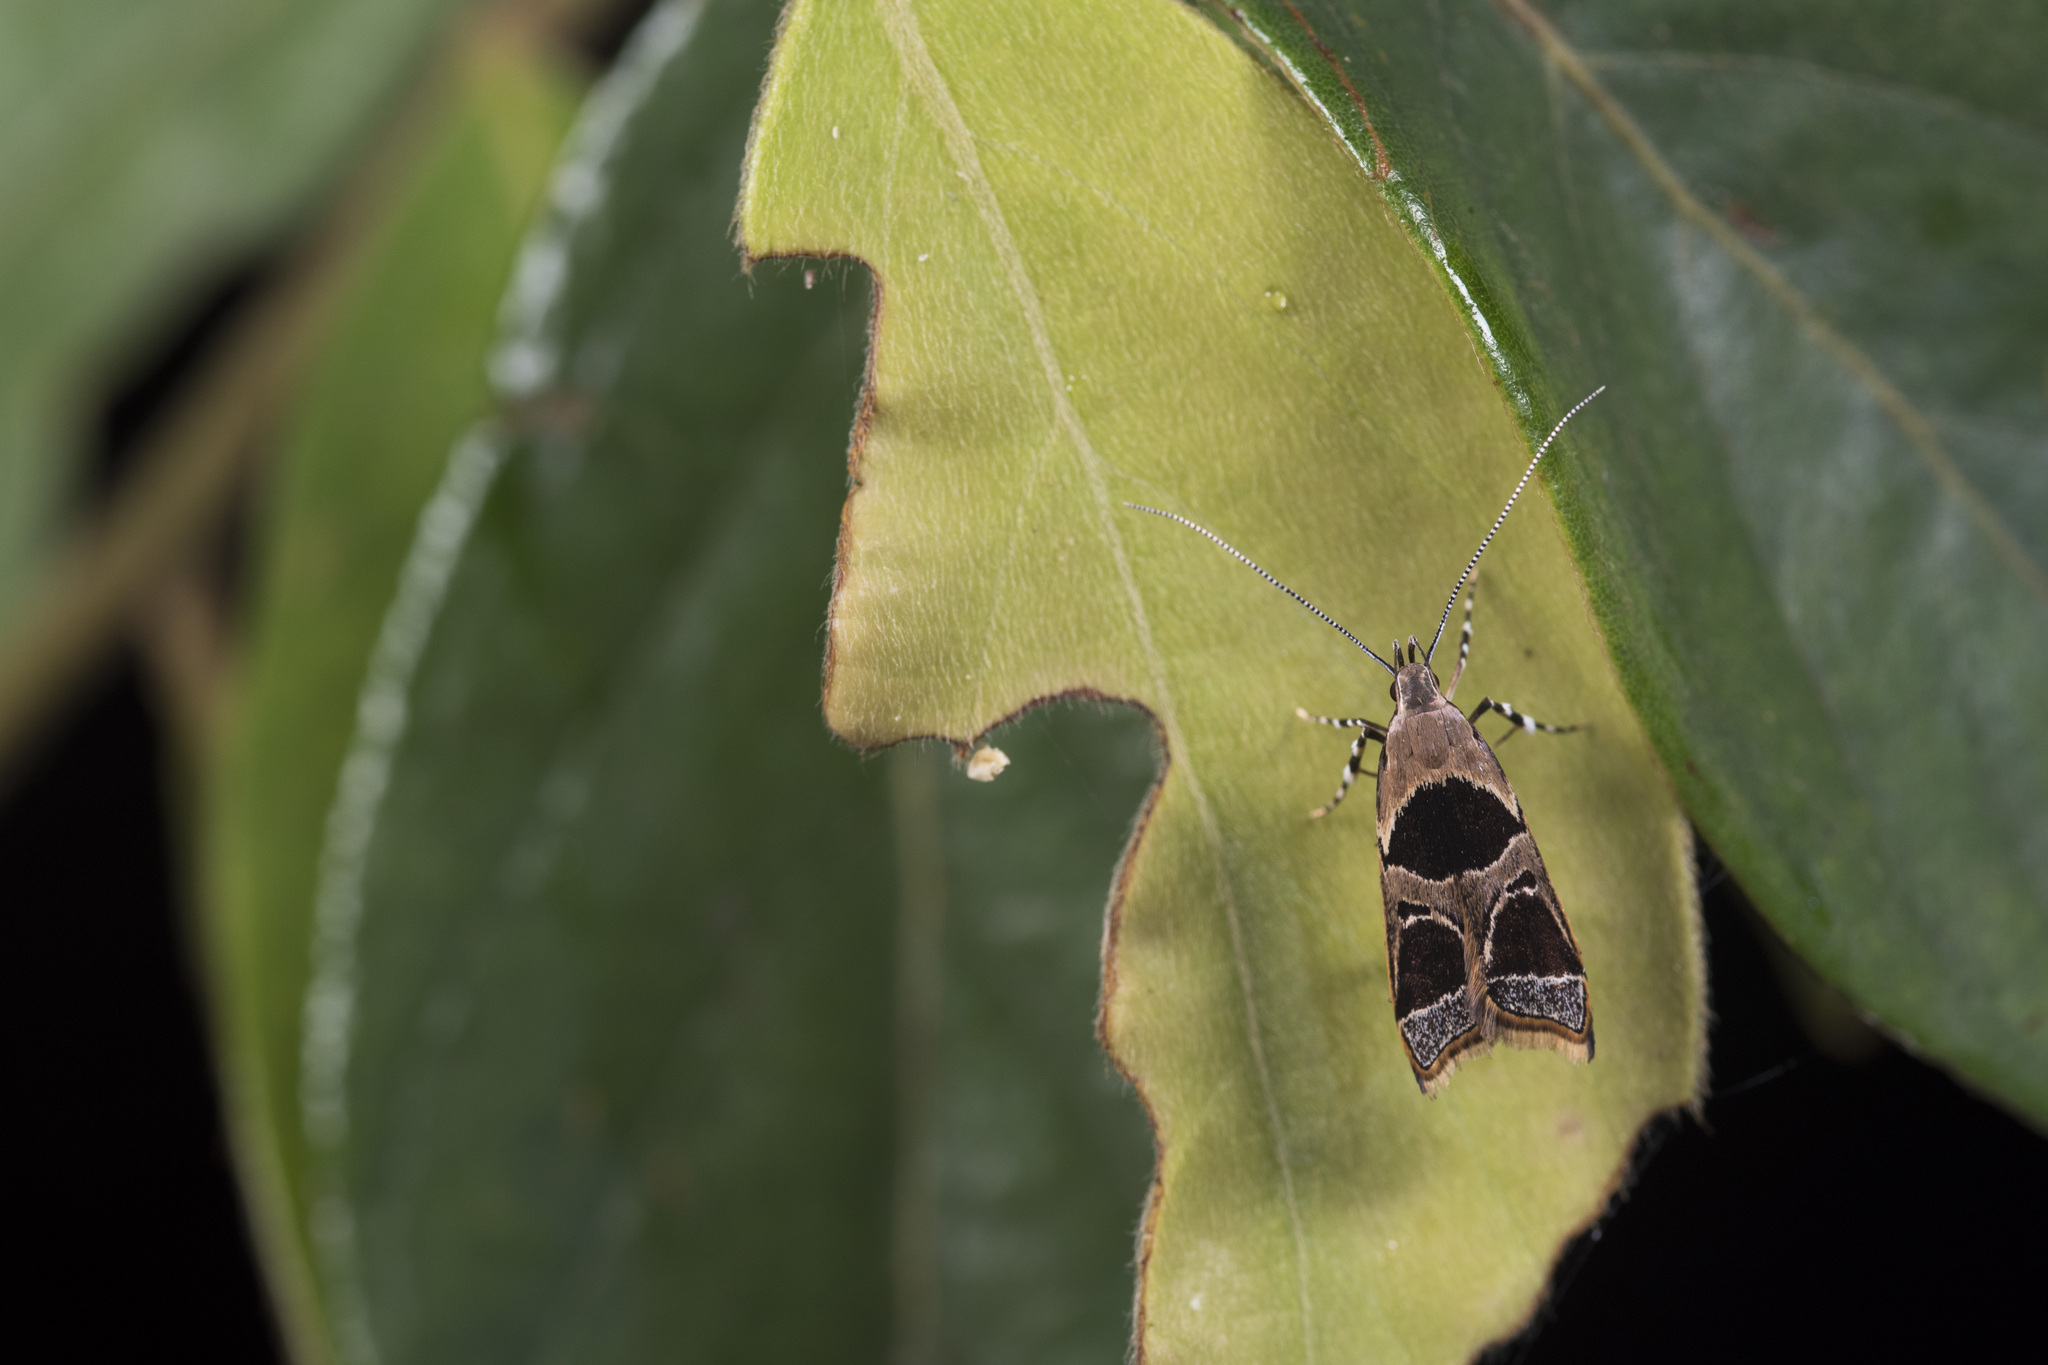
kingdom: Animalia
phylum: Arthropoda
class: Insecta
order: Lepidoptera
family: Lecithoceridae
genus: Deltoplastis
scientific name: Deltoplastis commatopa
